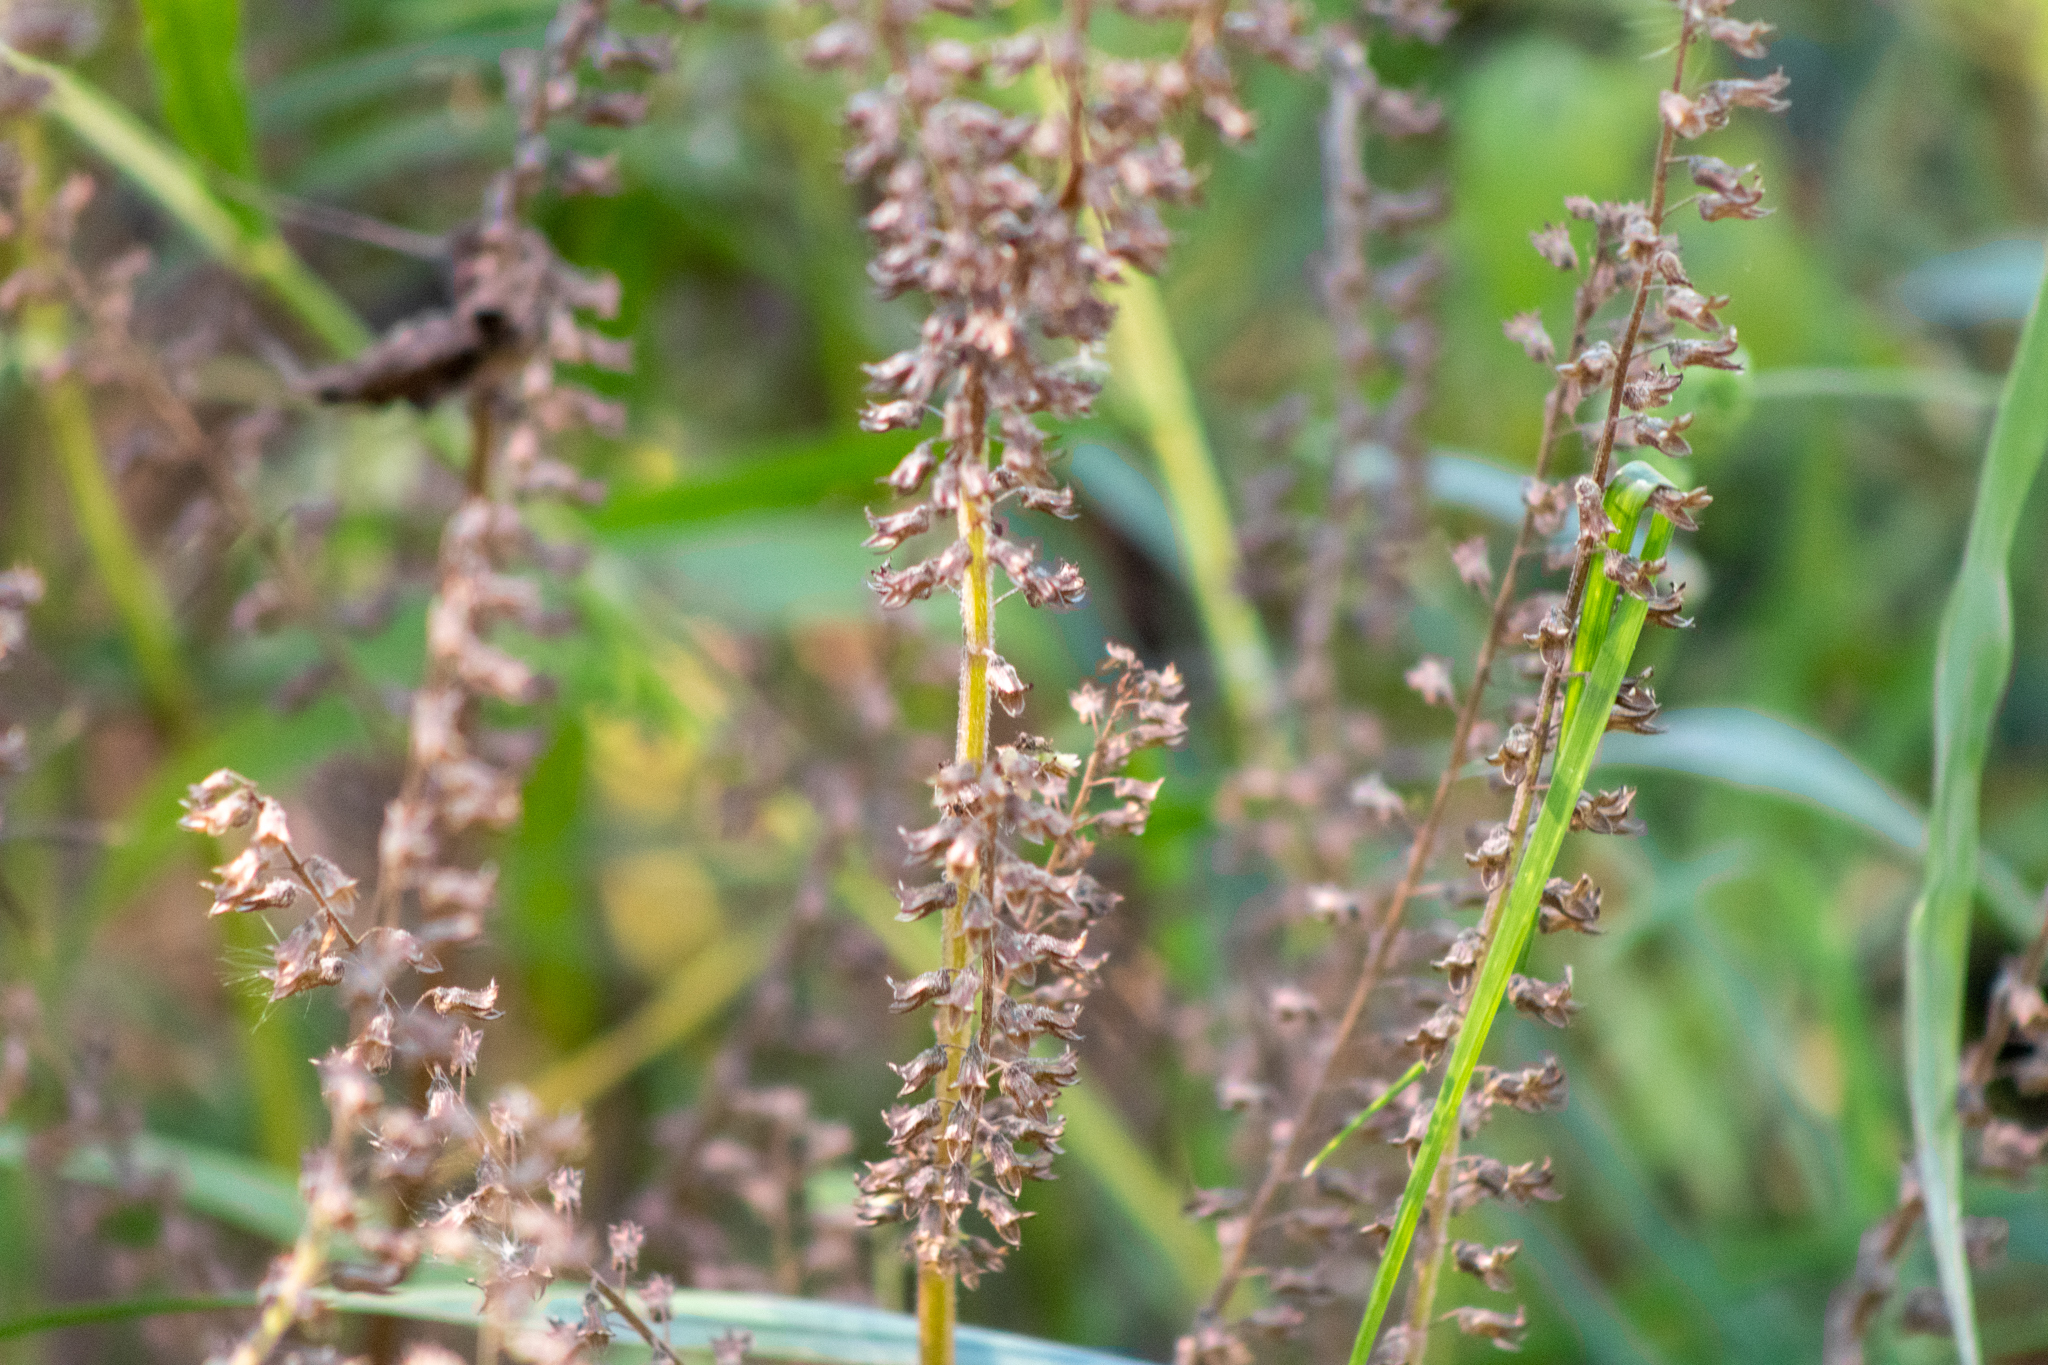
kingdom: Plantae
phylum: Tracheophyta
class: Magnoliopsida
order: Lamiales
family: Lamiaceae
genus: Perilla
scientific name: Perilla frutescens
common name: Perilla
